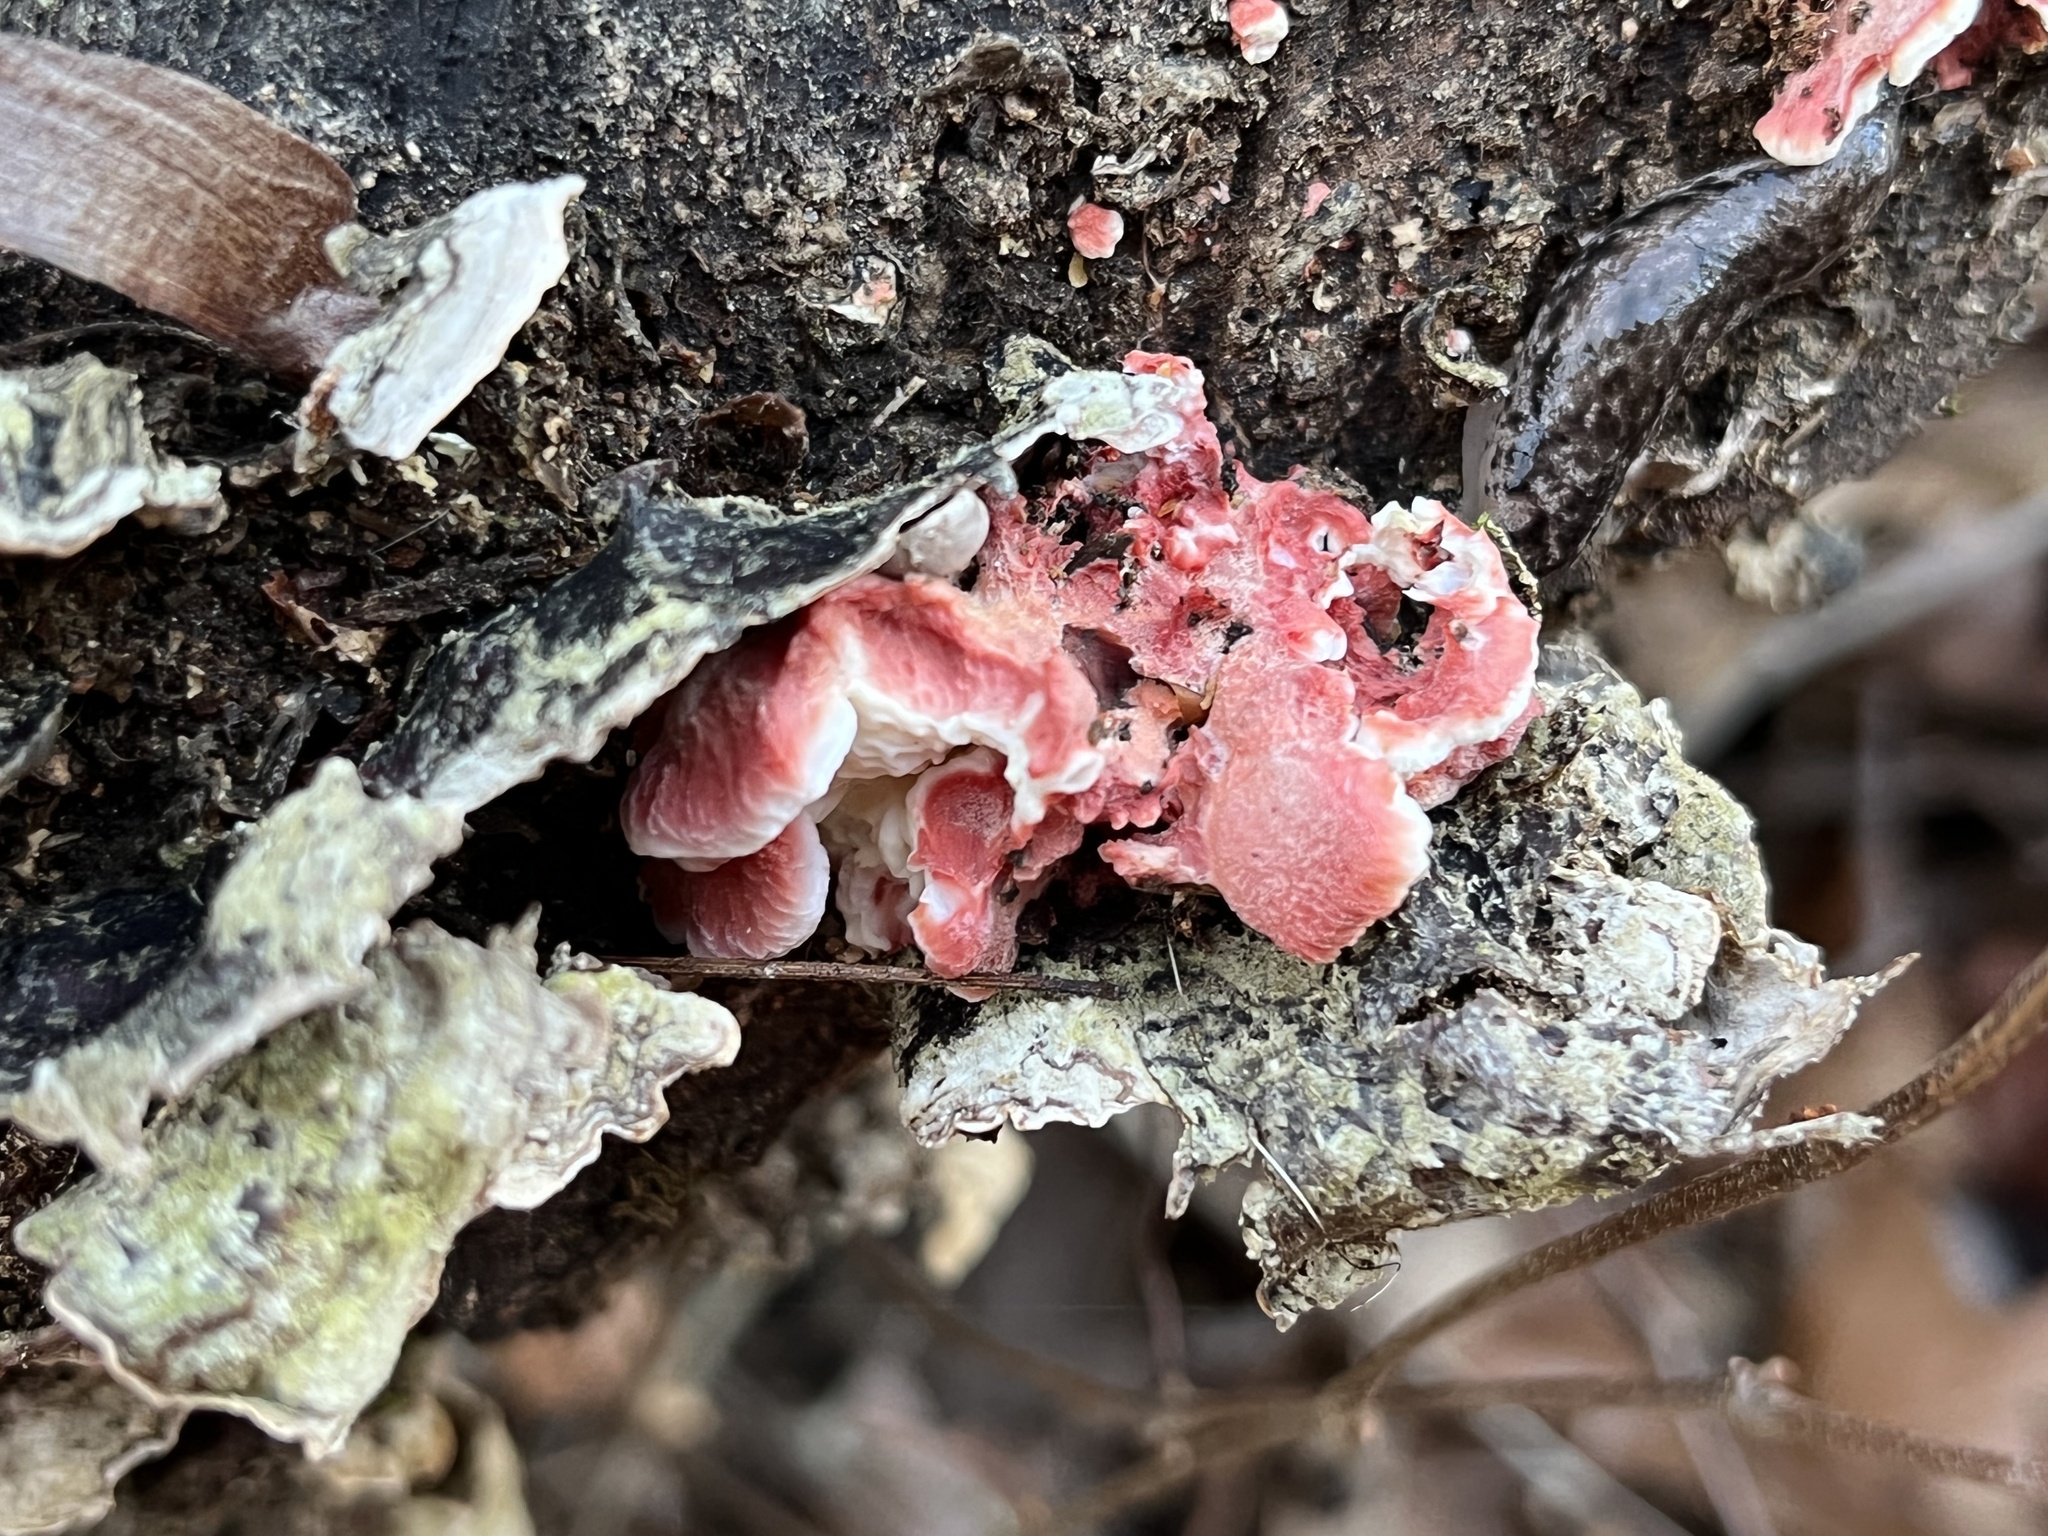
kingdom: Fungi
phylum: Basidiomycota
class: Agaricomycetes
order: Polyporales
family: Irpicaceae
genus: Byssomerulius
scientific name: Byssomerulius incarnatus
